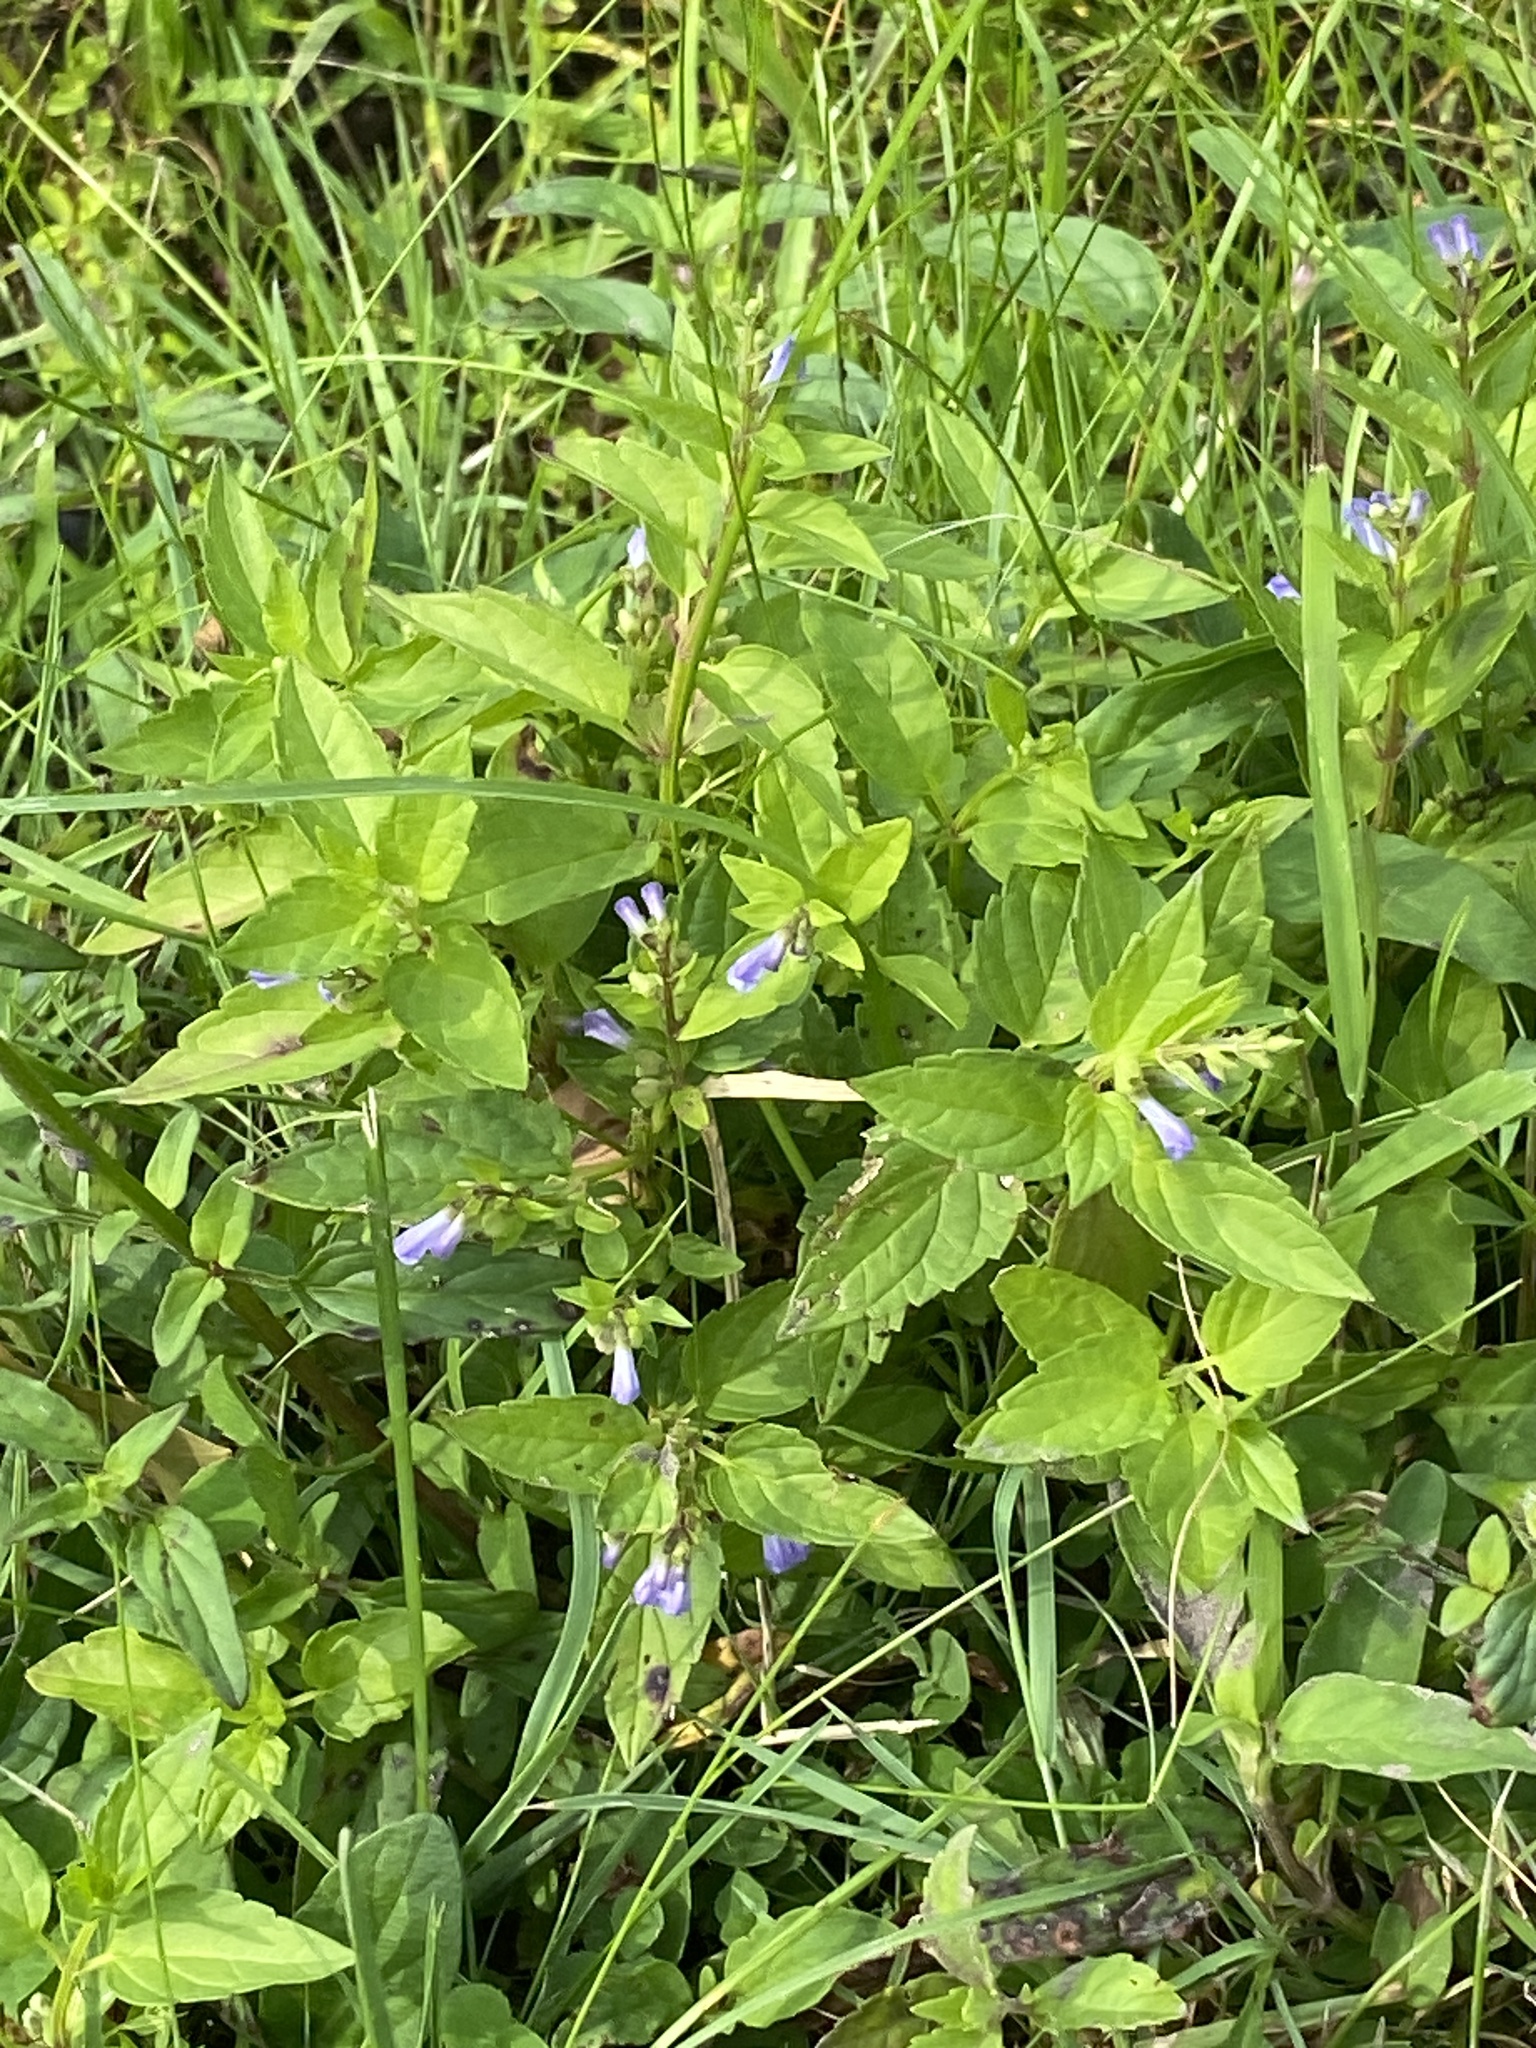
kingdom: Plantae
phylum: Tracheophyta
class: Magnoliopsida
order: Lamiales
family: Lamiaceae
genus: Scutellaria
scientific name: Scutellaria lateriflora
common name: Blue skullcap
